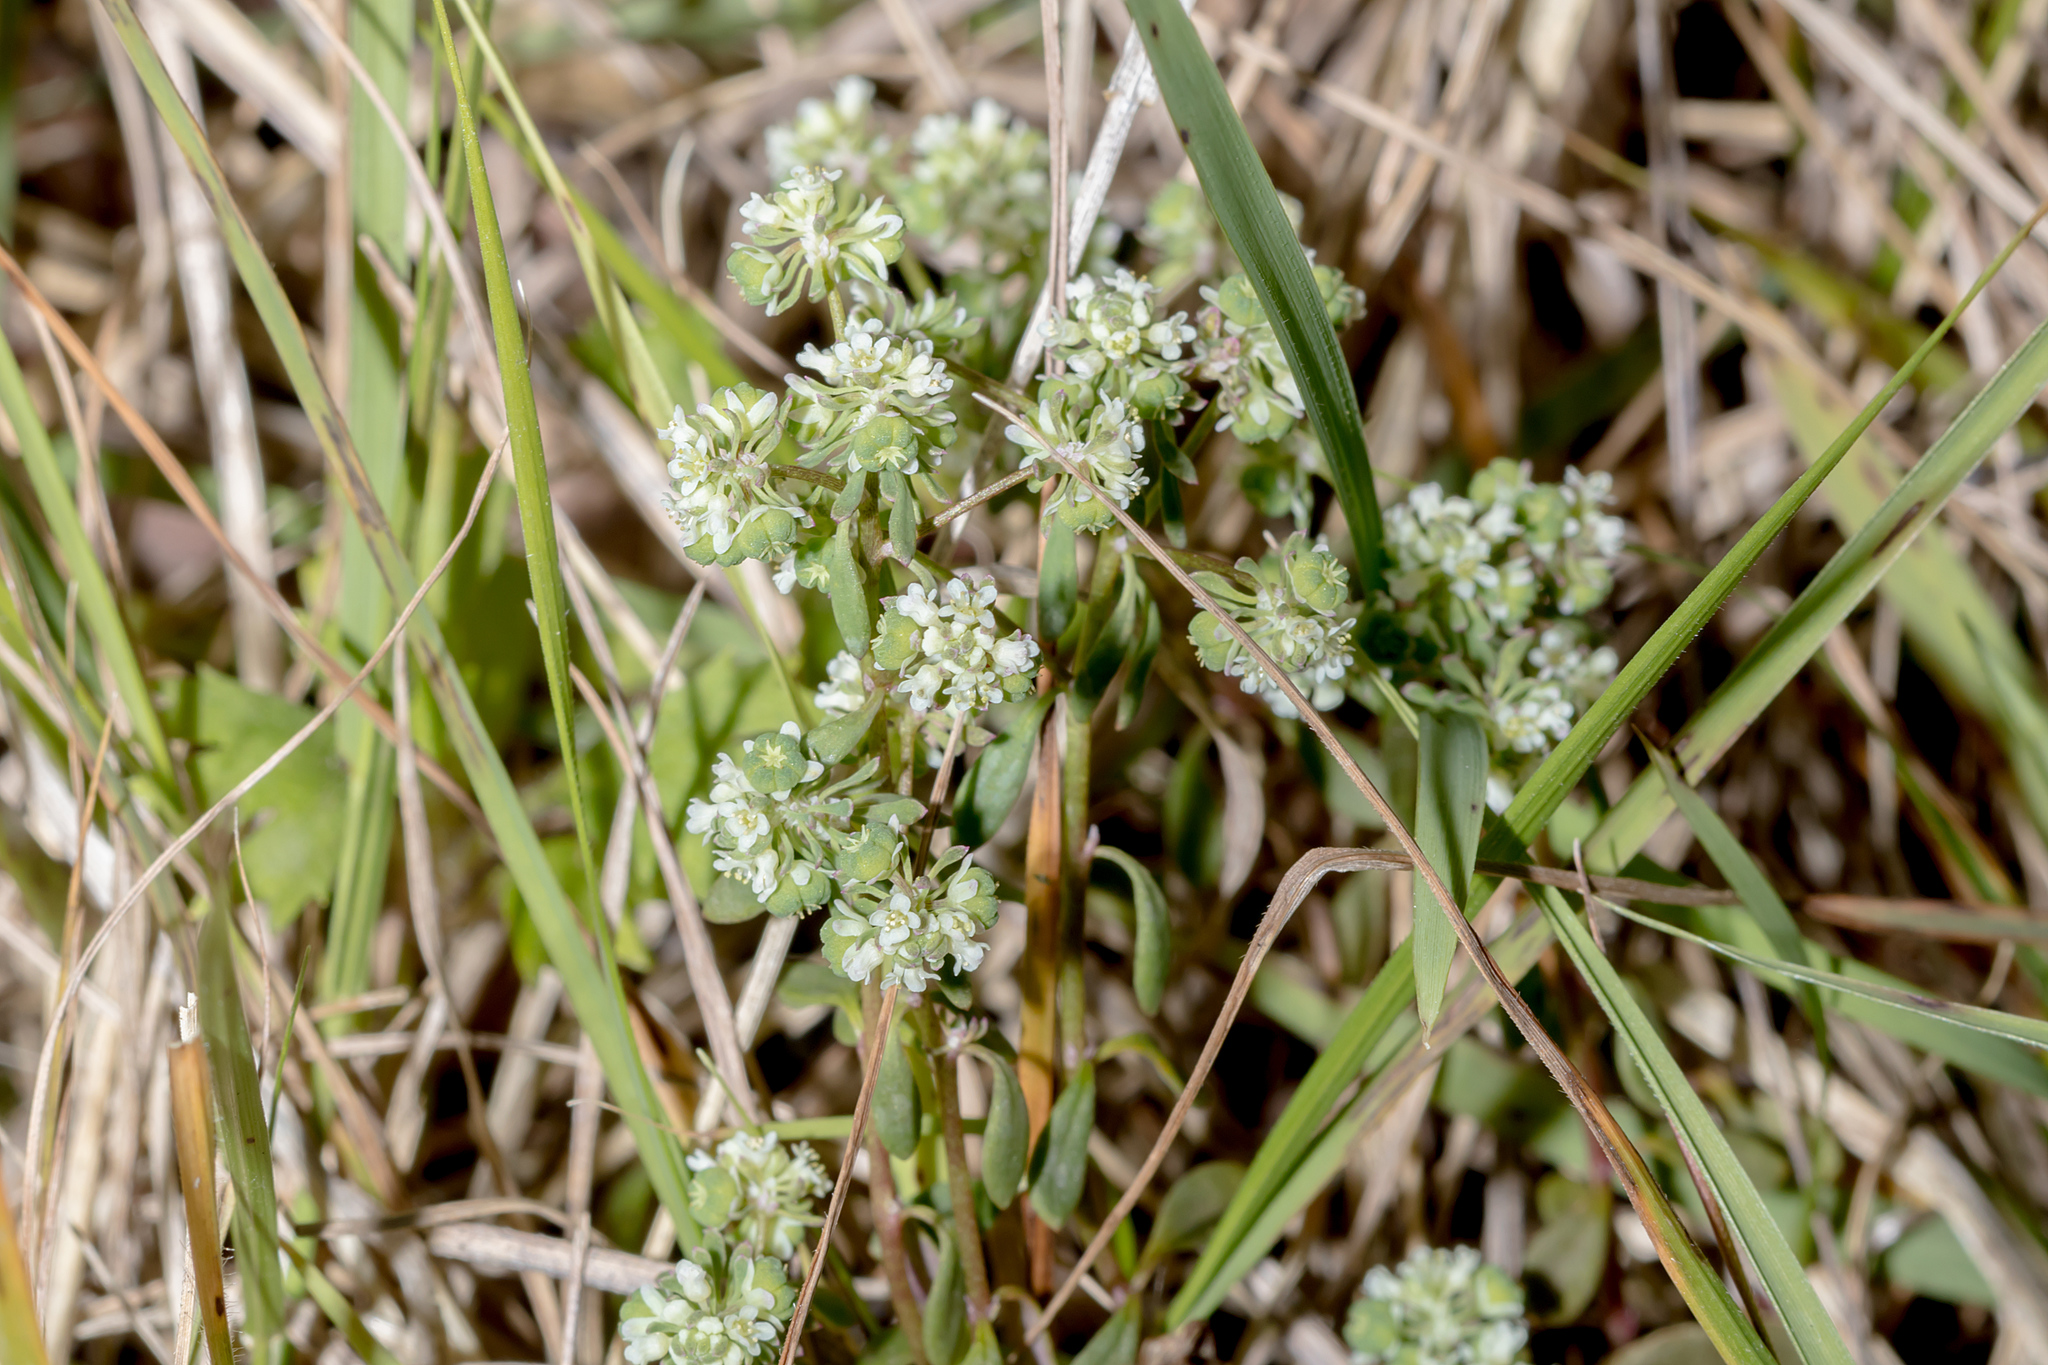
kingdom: Plantae
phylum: Tracheophyta
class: Magnoliopsida
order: Malpighiales
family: Phyllanthaceae
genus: Poranthera
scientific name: Poranthera microphylla
